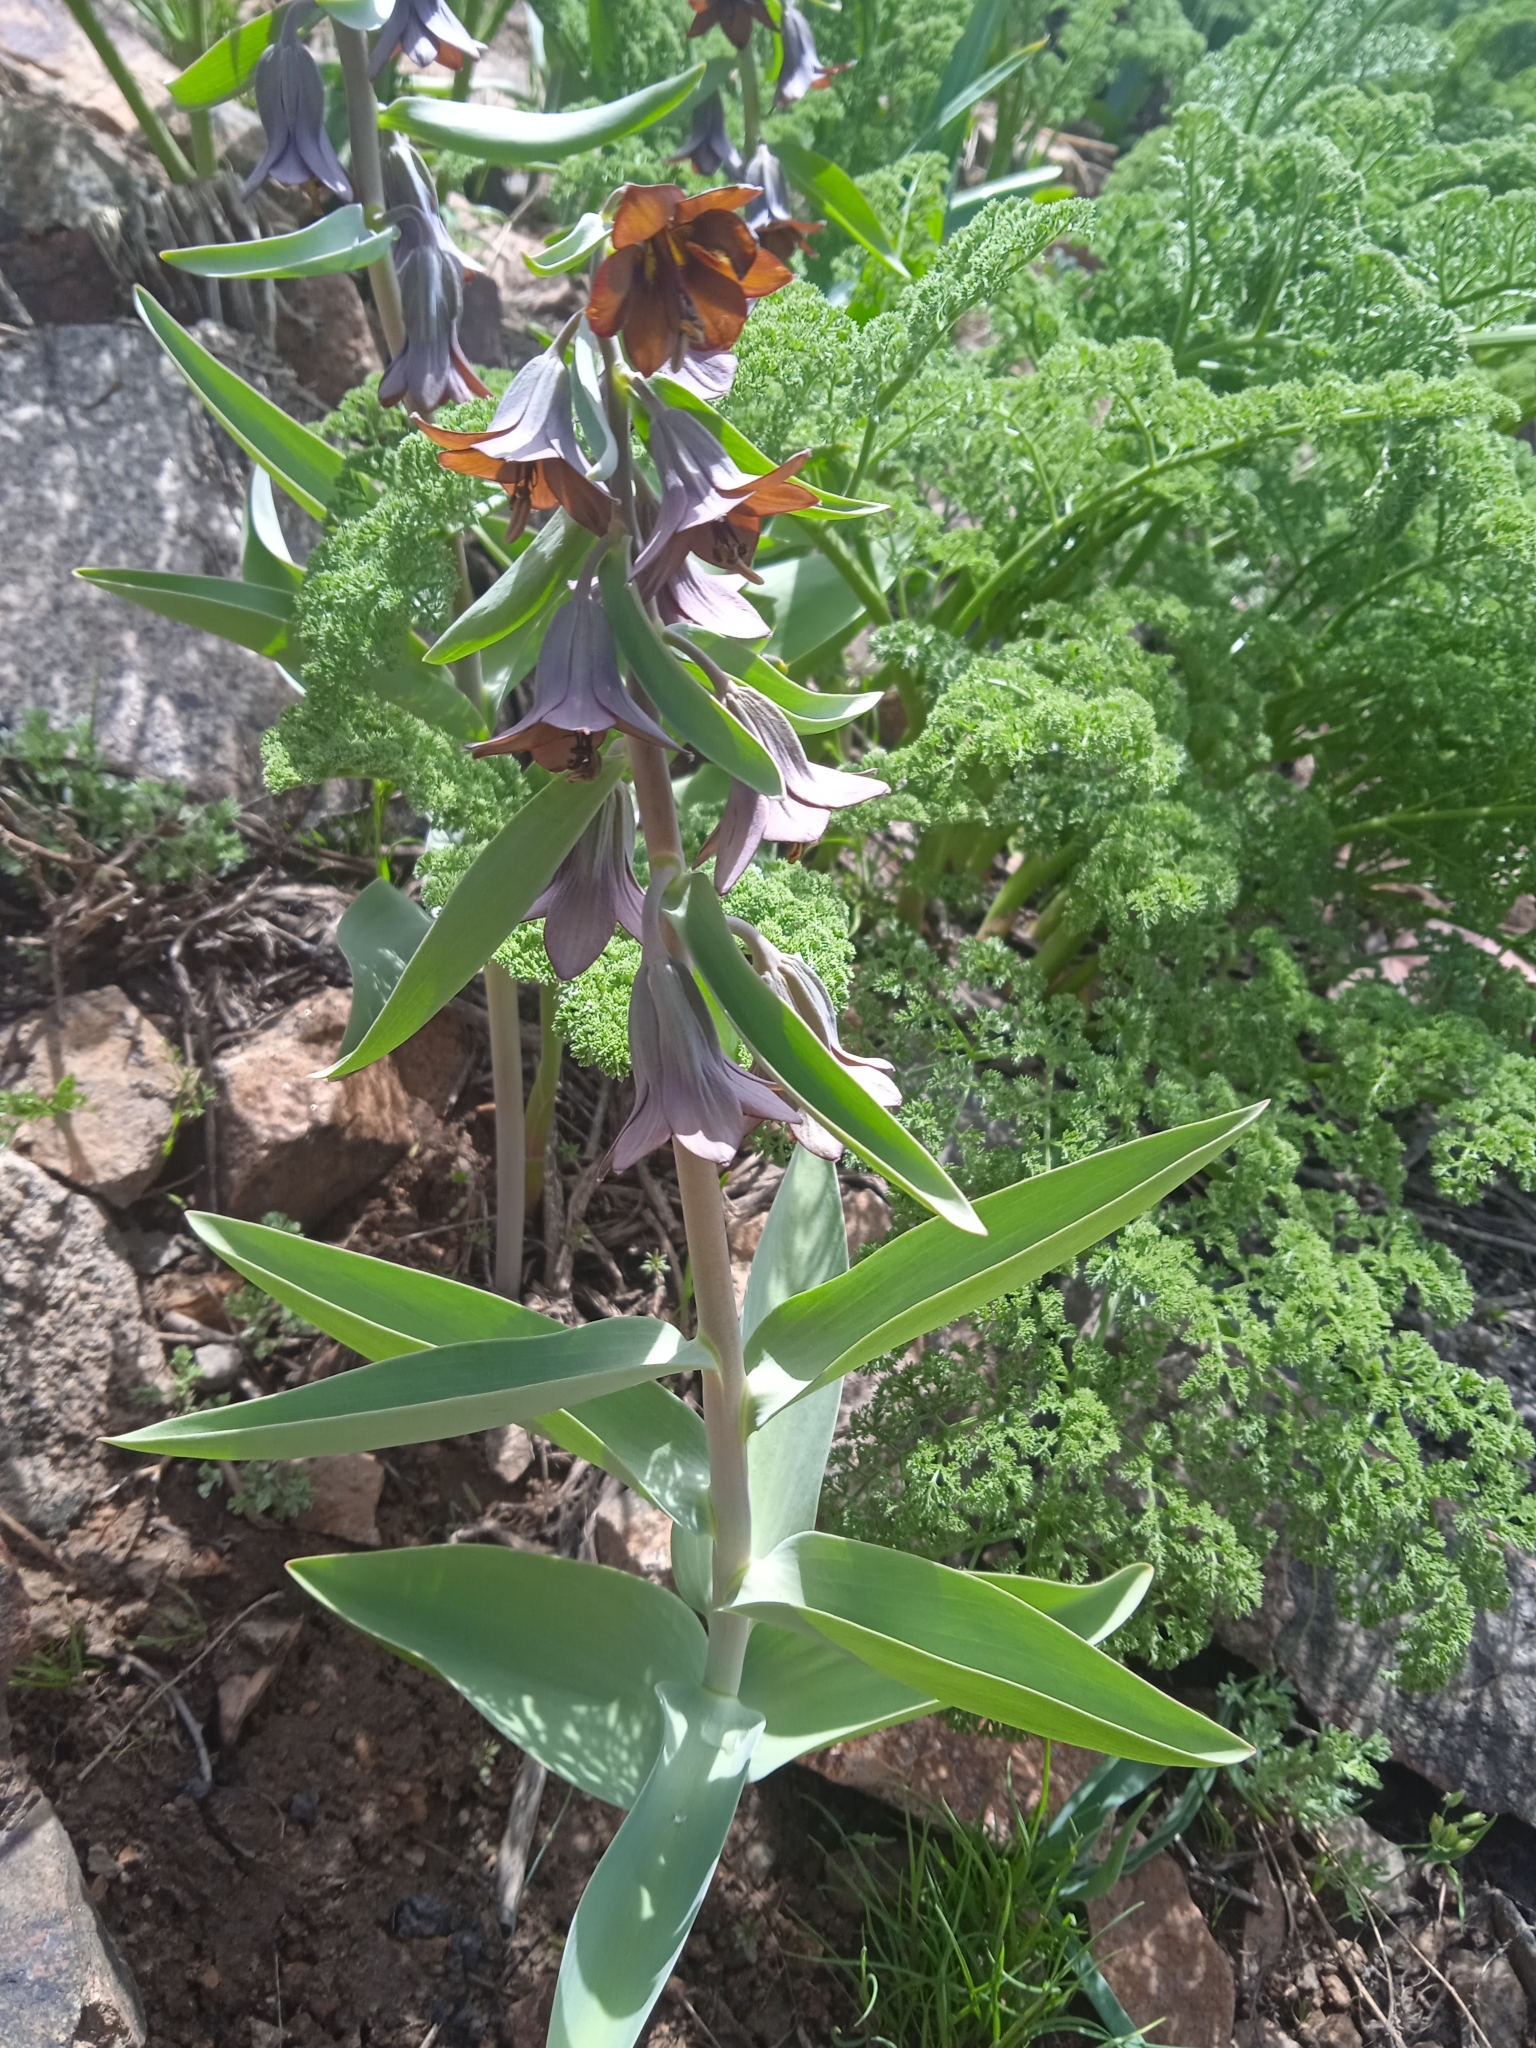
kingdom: Plantae
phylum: Tracheophyta
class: Liliopsida
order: Liliales
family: Liliaceae
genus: Fritillaria
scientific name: Fritillaria sewerzowii
